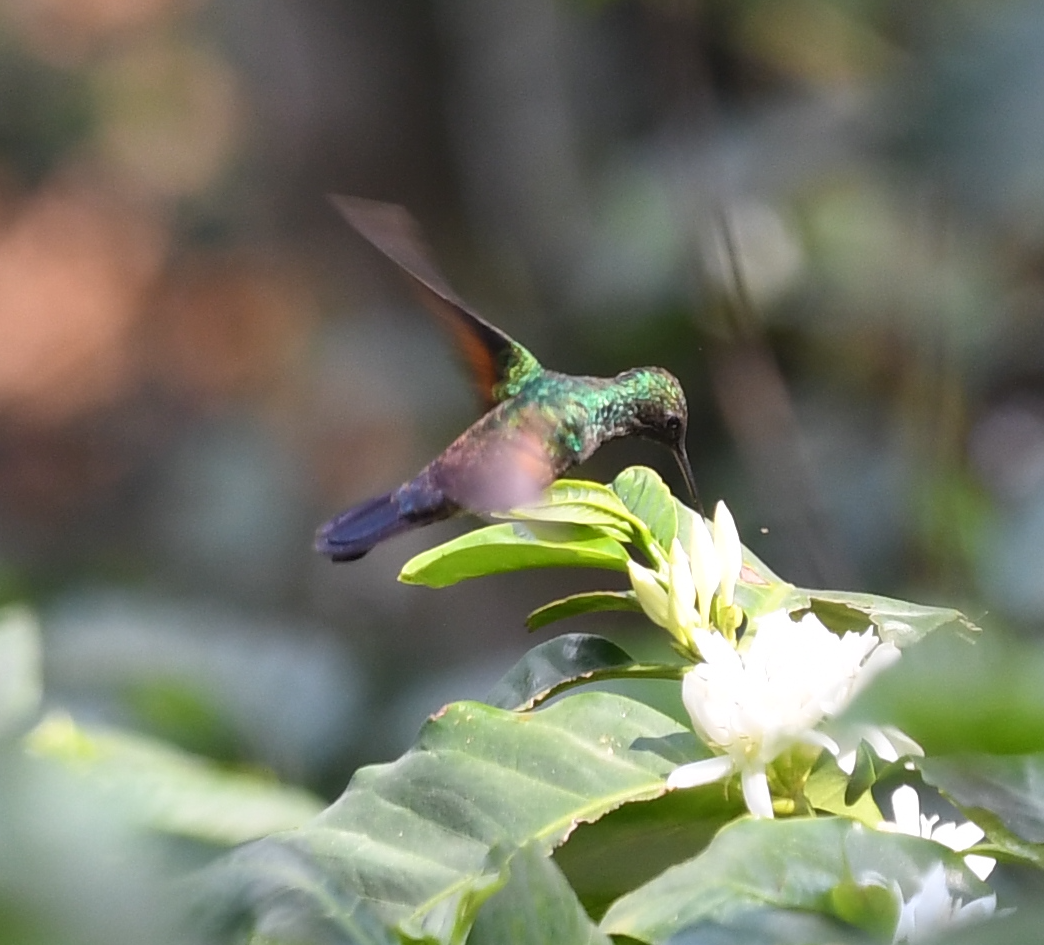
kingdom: Animalia
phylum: Chordata
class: Aves
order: Apodiformes
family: Trochilidae
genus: Saucerottia
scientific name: Saucerottia cyanura
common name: Blue-tailed hummingbird
